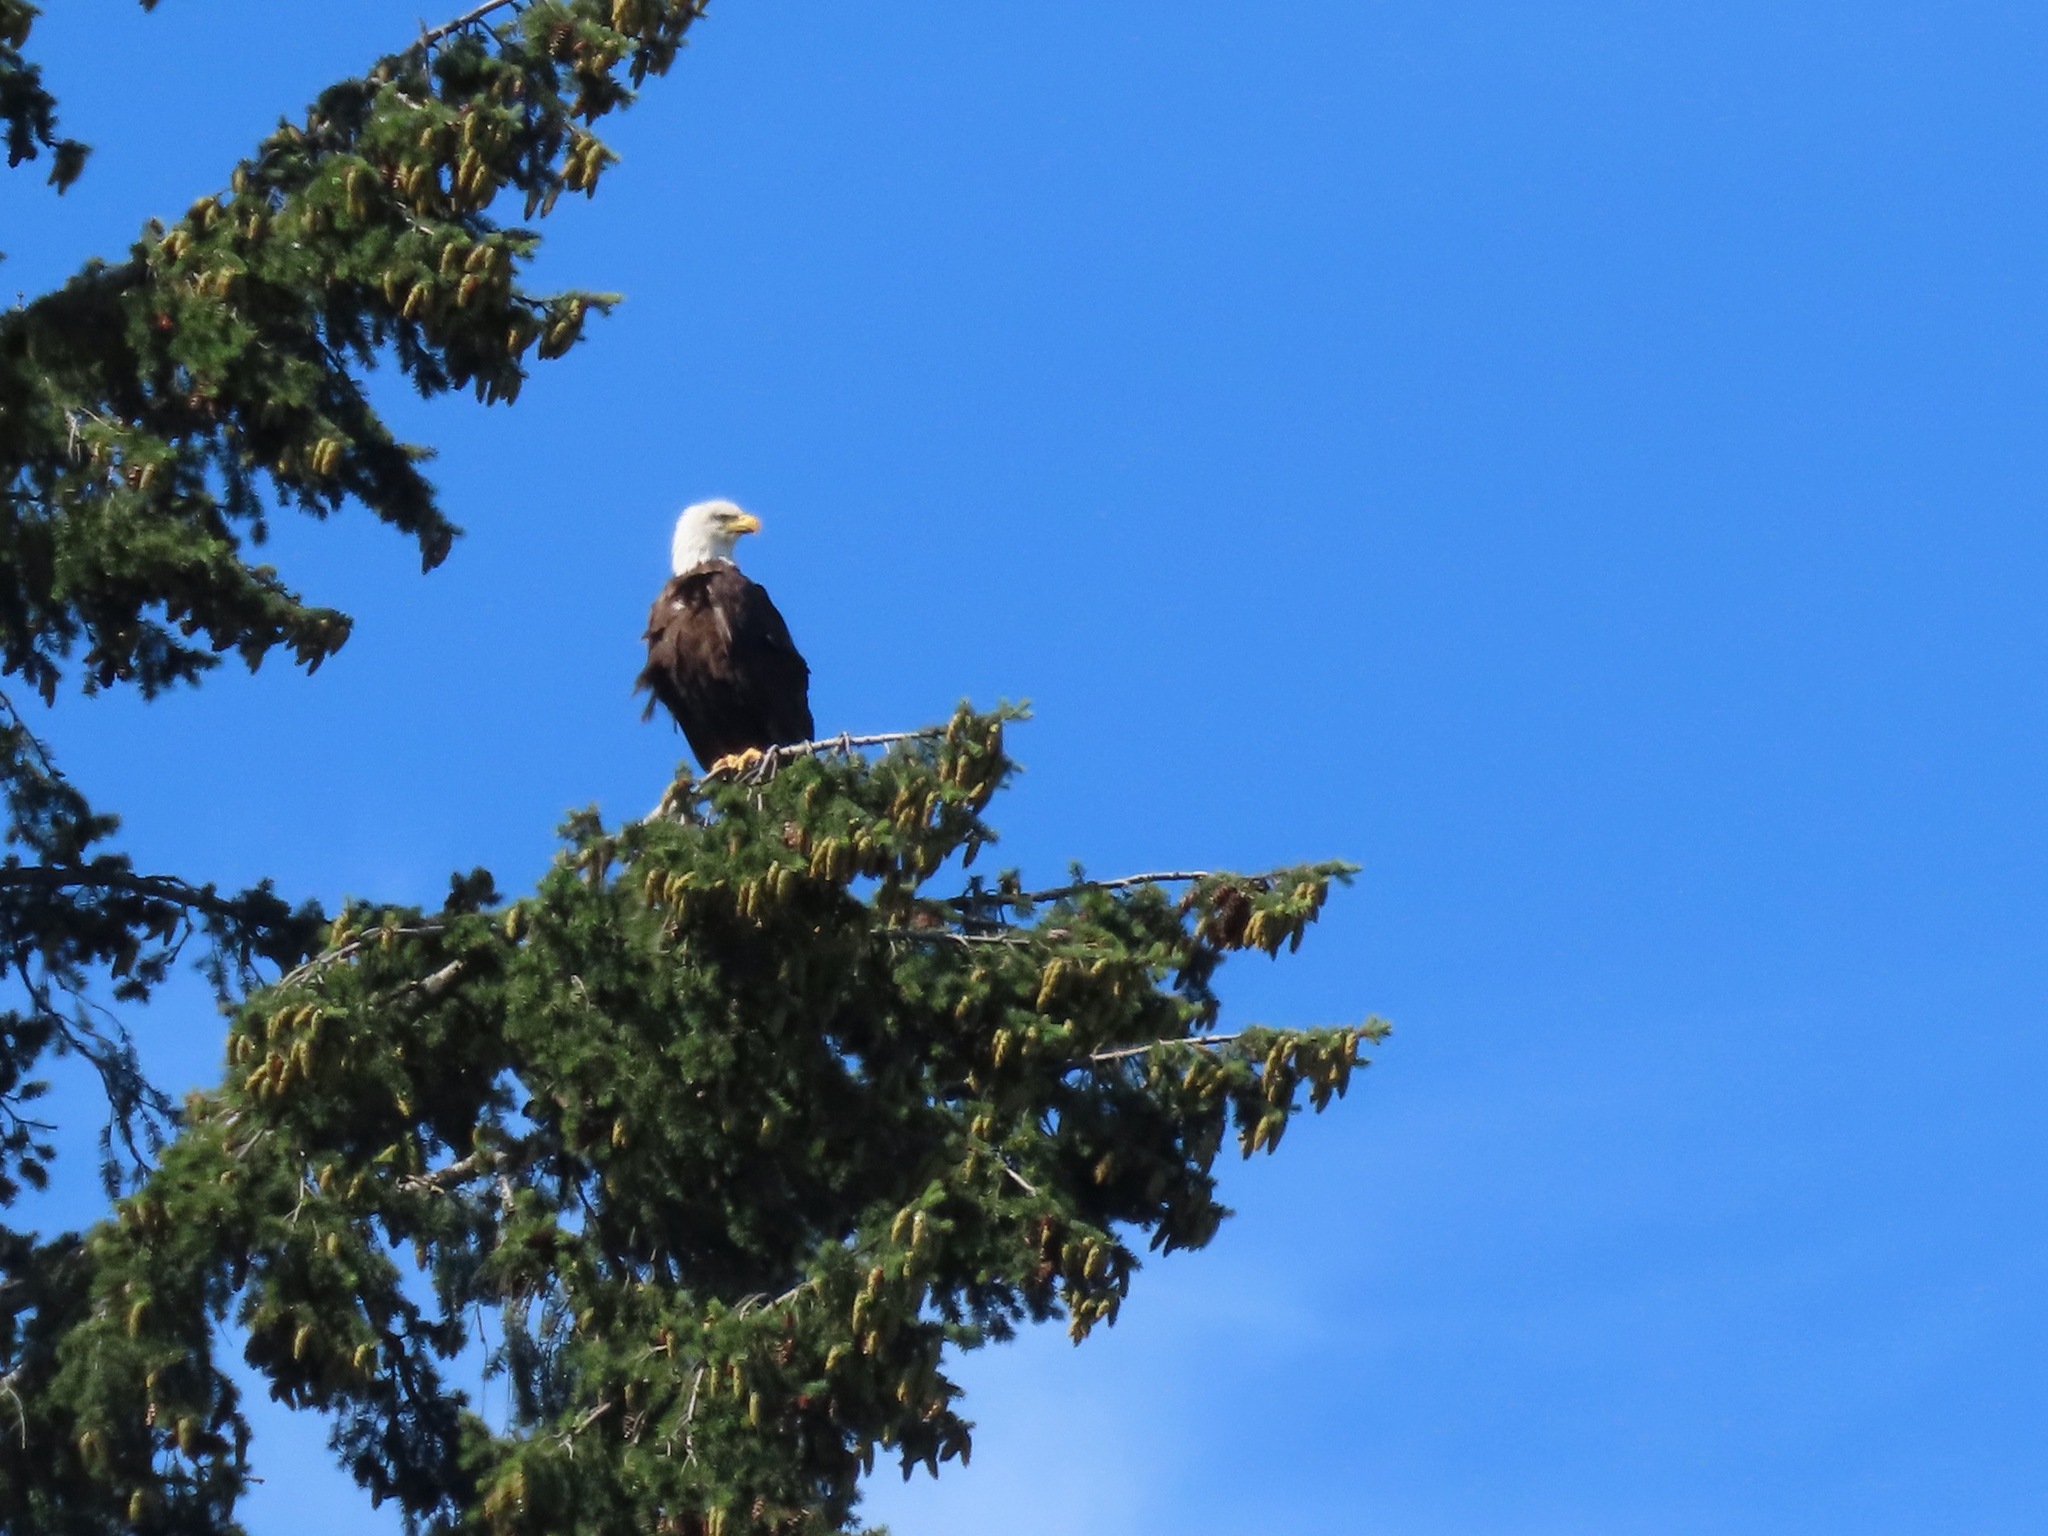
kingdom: Animalia
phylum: Chordata
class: Aves
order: Accipitriformes
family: Accipitridae
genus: Haliaeetus
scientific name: Haliaeetus leucocephalus
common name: Bald eagle
